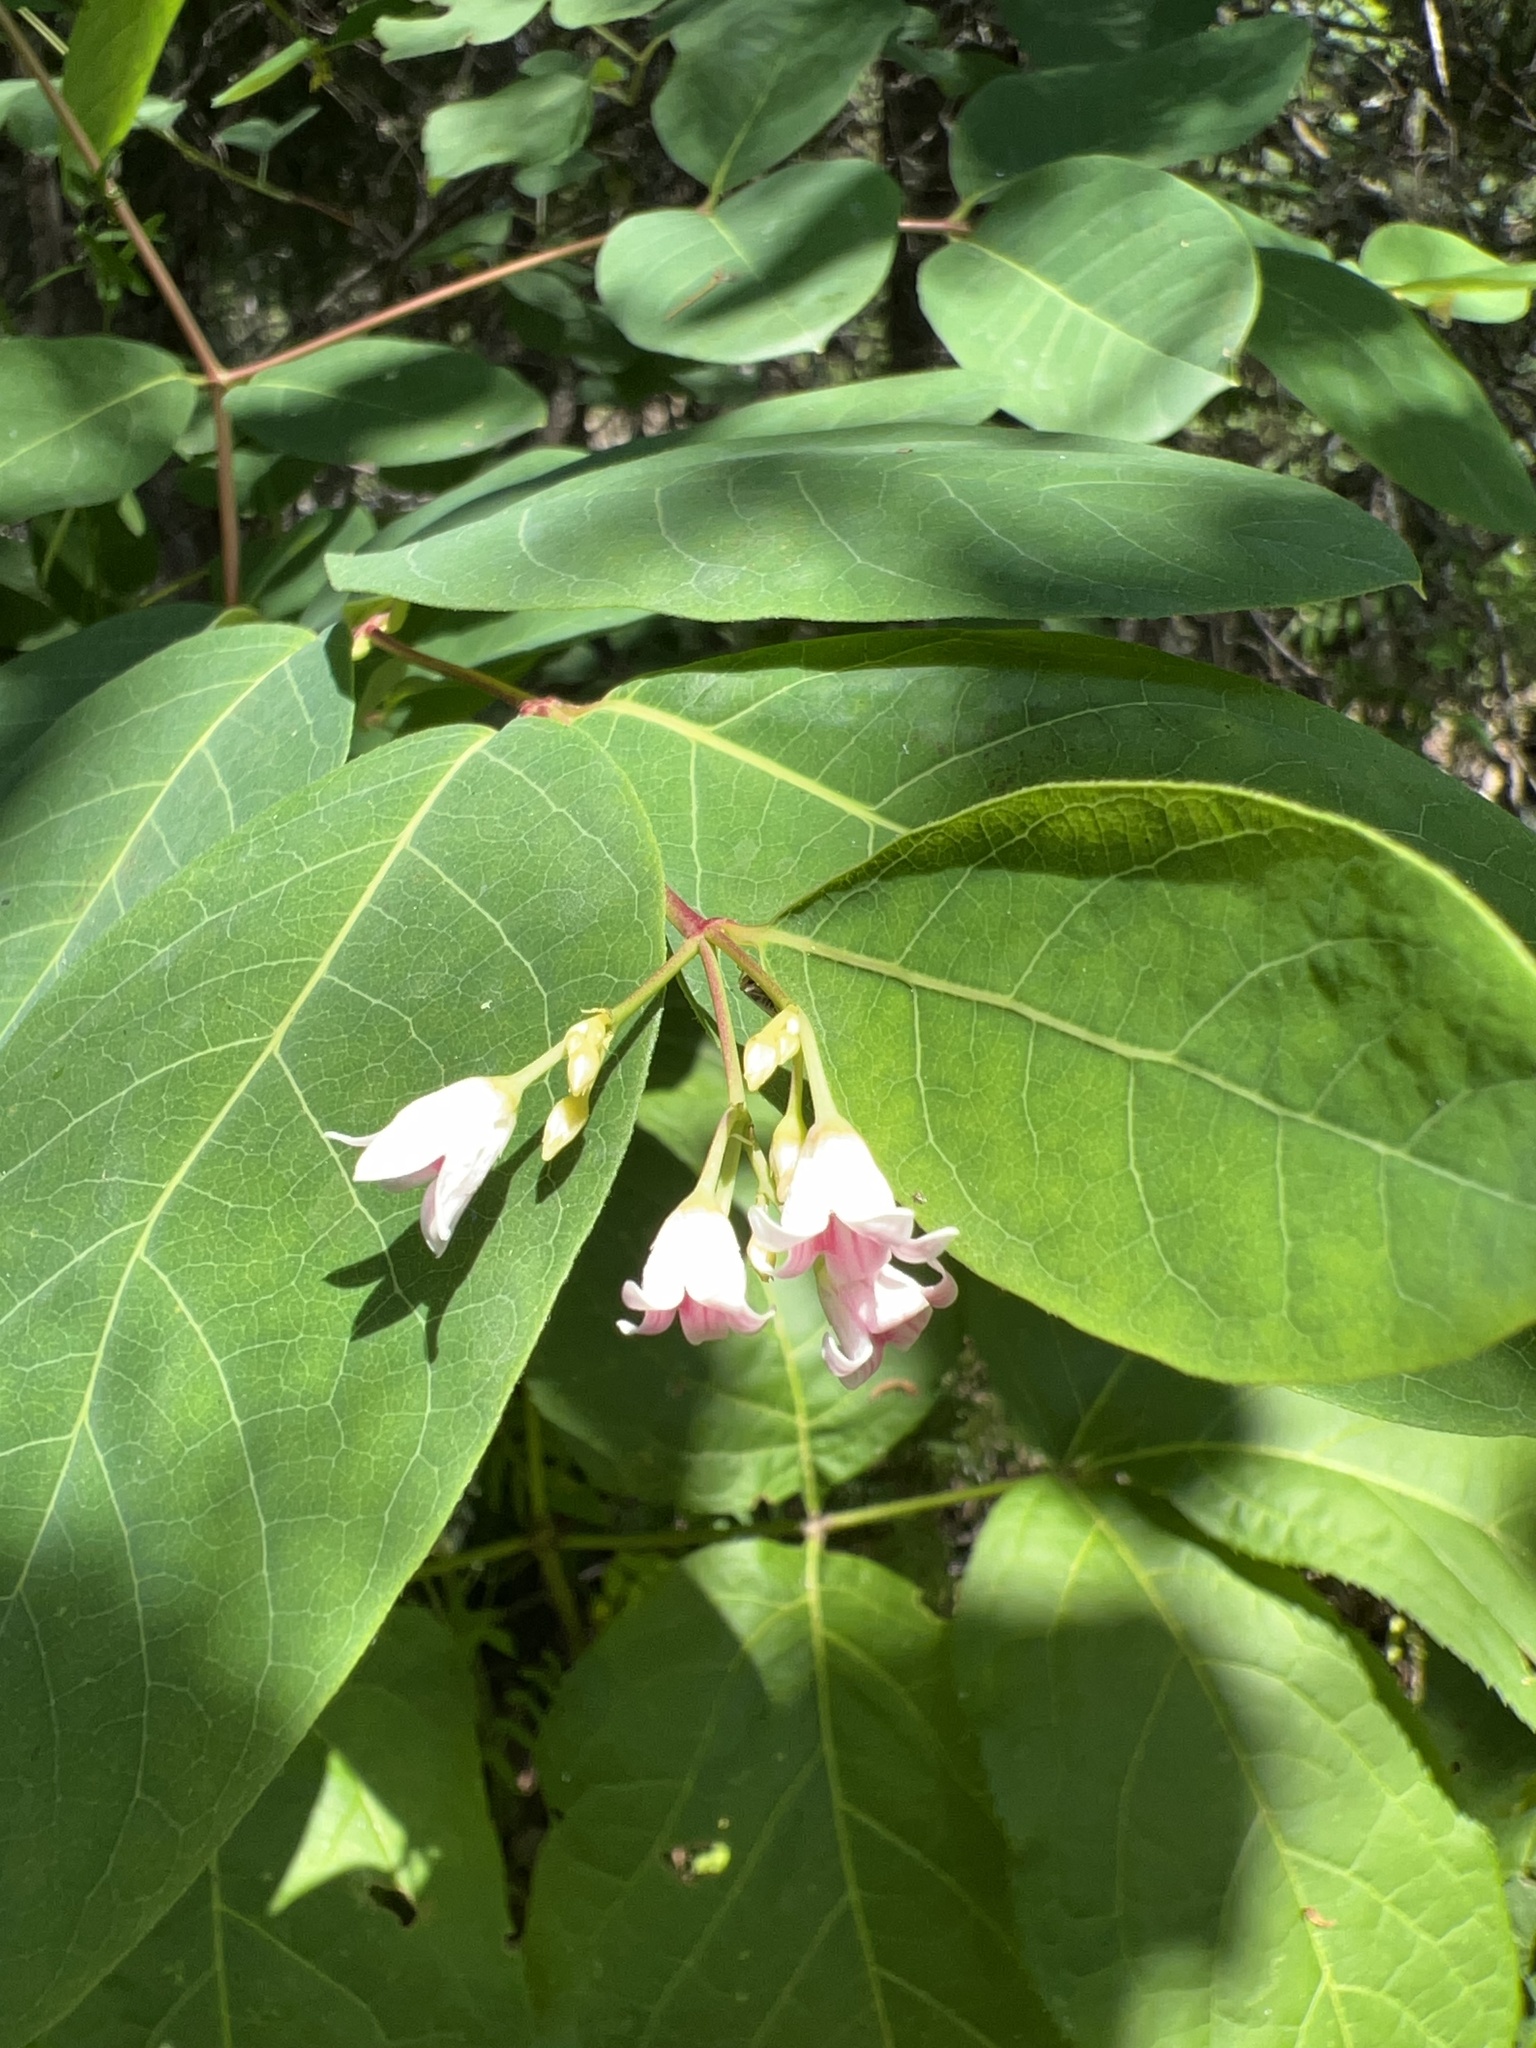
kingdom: Plantae
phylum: Tracheophyta
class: Magnoliopsida
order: Gentianales
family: Apocynaceae
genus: Apocynum
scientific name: Apocynum androsaemifolium
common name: Spreading dogbane
